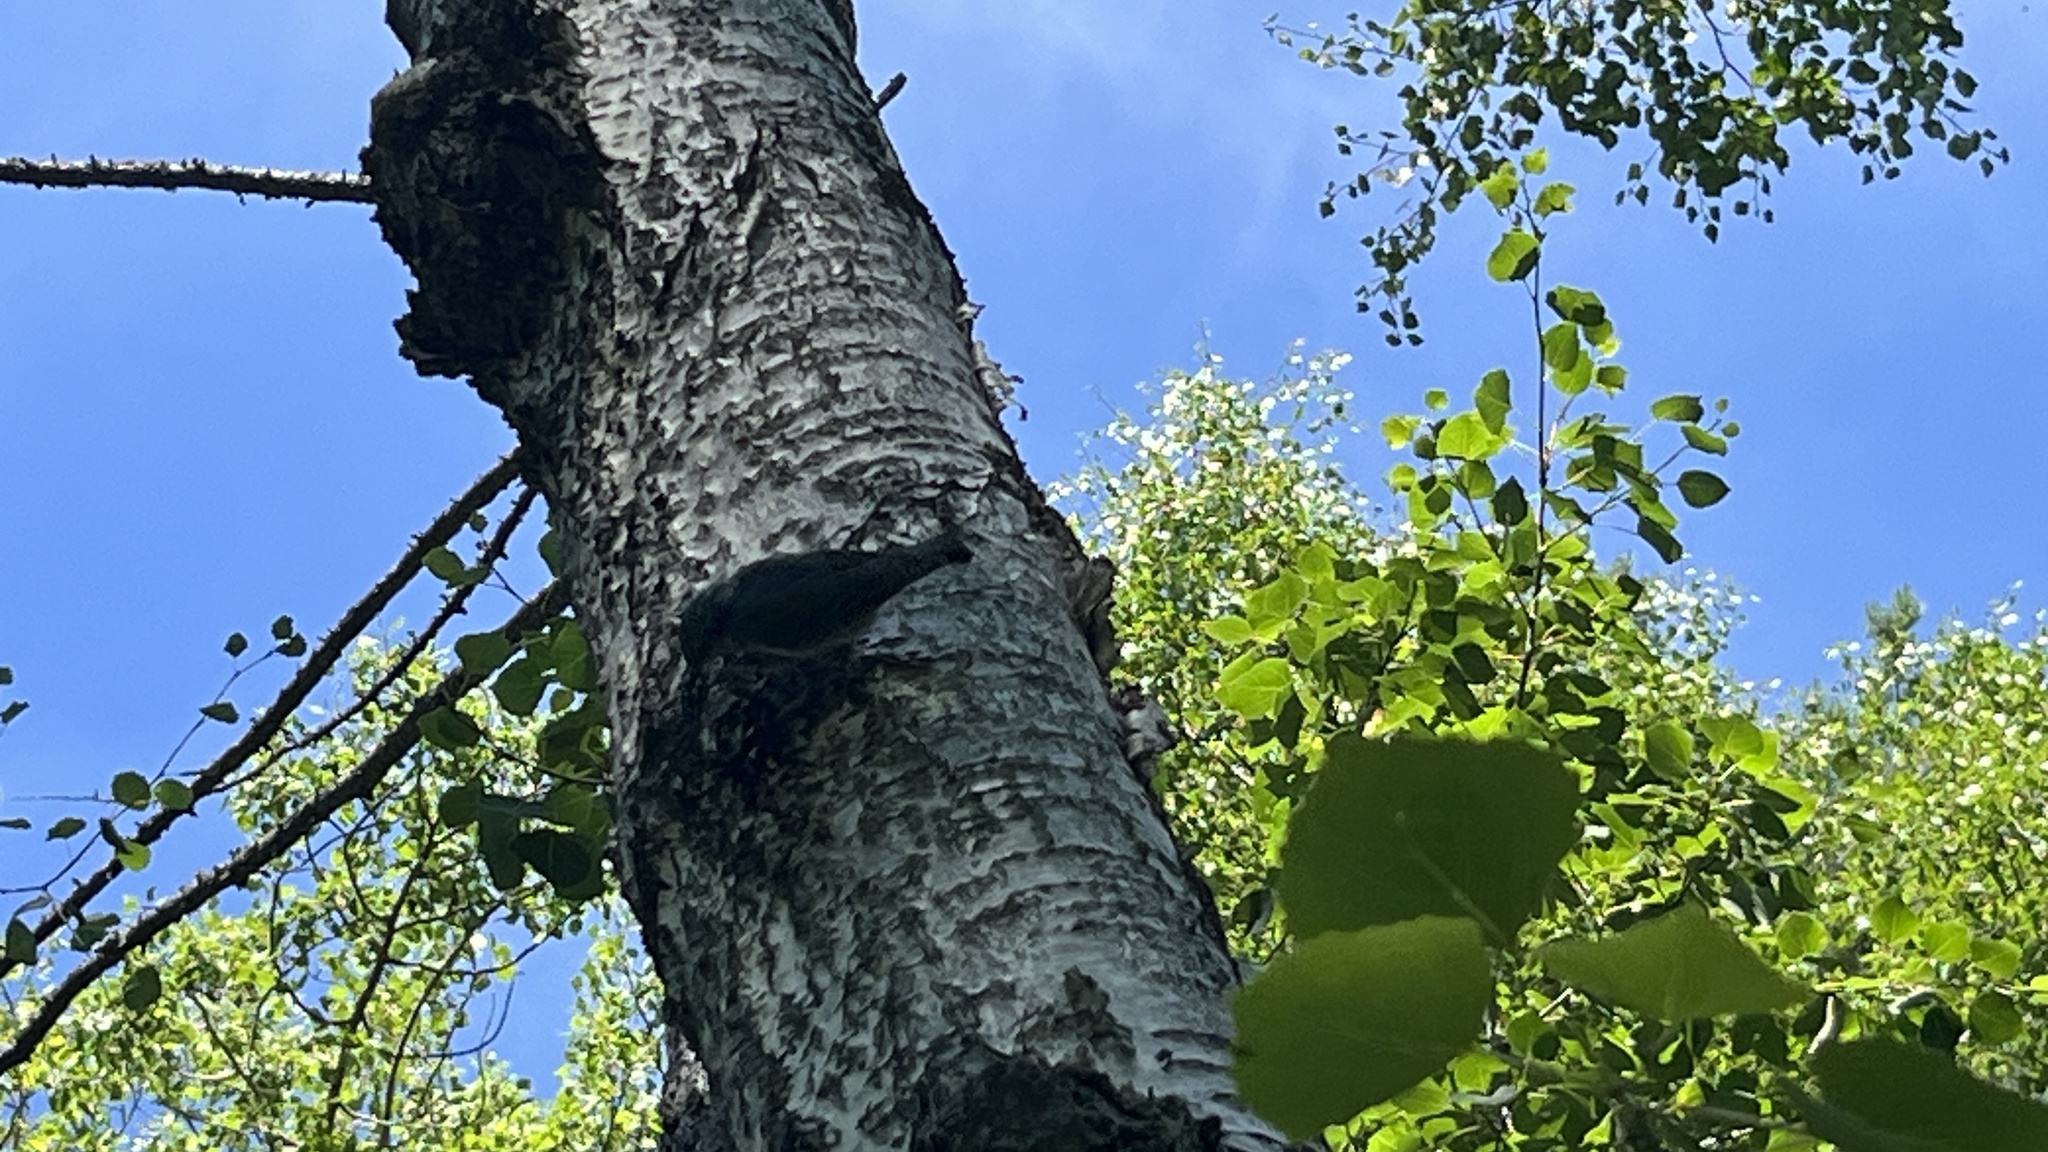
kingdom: Animalia
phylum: Chordata
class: Aves
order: Passeriformes
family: Sittidae
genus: Sitta
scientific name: Sitta europaea
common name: Eurasian nuthatch
